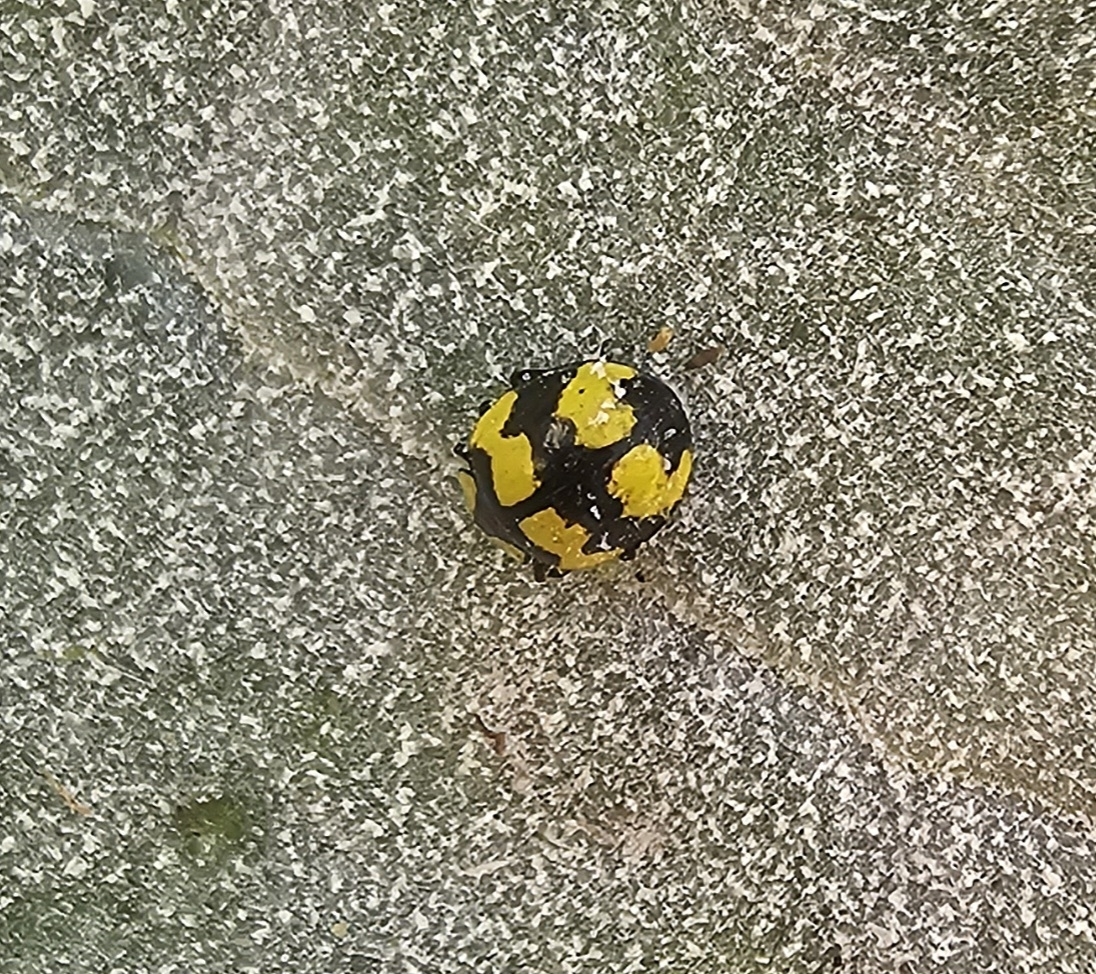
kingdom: Animalia
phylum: Arthropoda
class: Insecta
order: Coleoptera
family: Coccinellidae
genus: Illeis
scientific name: Illeis galbula
